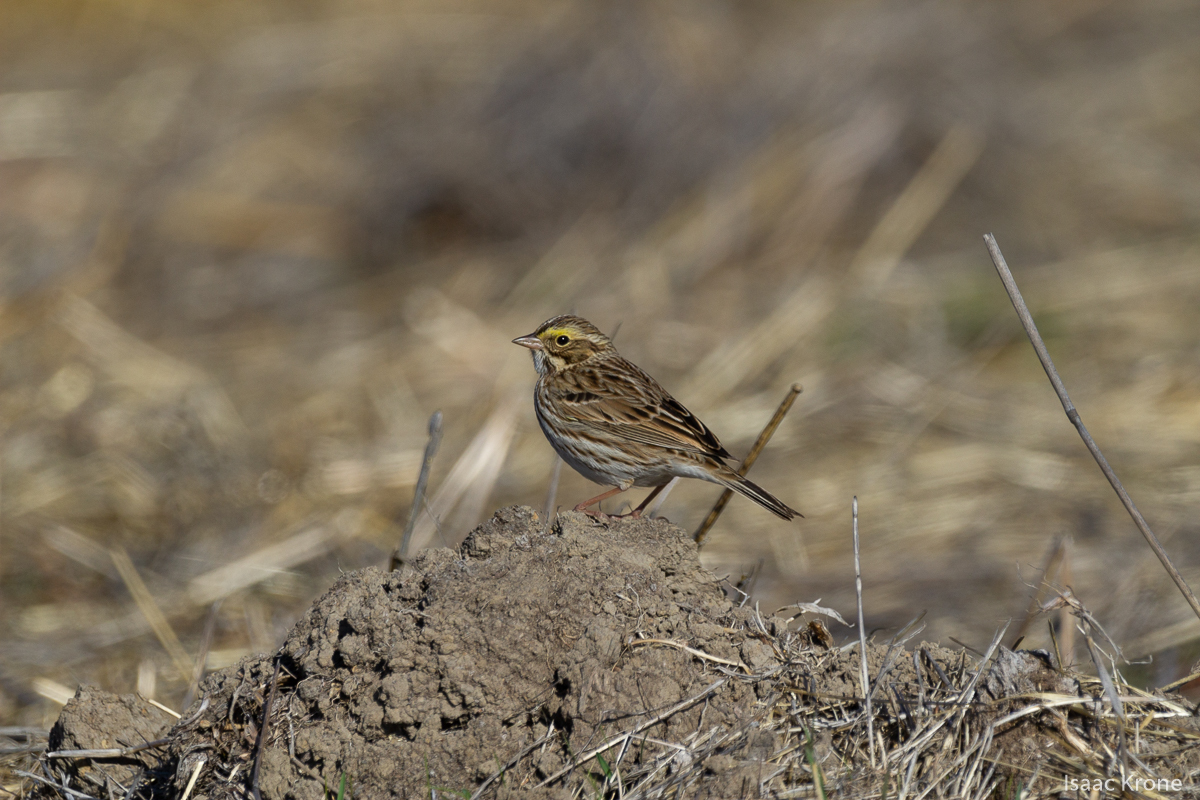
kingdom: Animalia
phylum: Chordata
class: Aves
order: Passeriformes
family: Passerellidae
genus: Passerculus
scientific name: Passerculus sandwichensis
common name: Savannah sparrow
